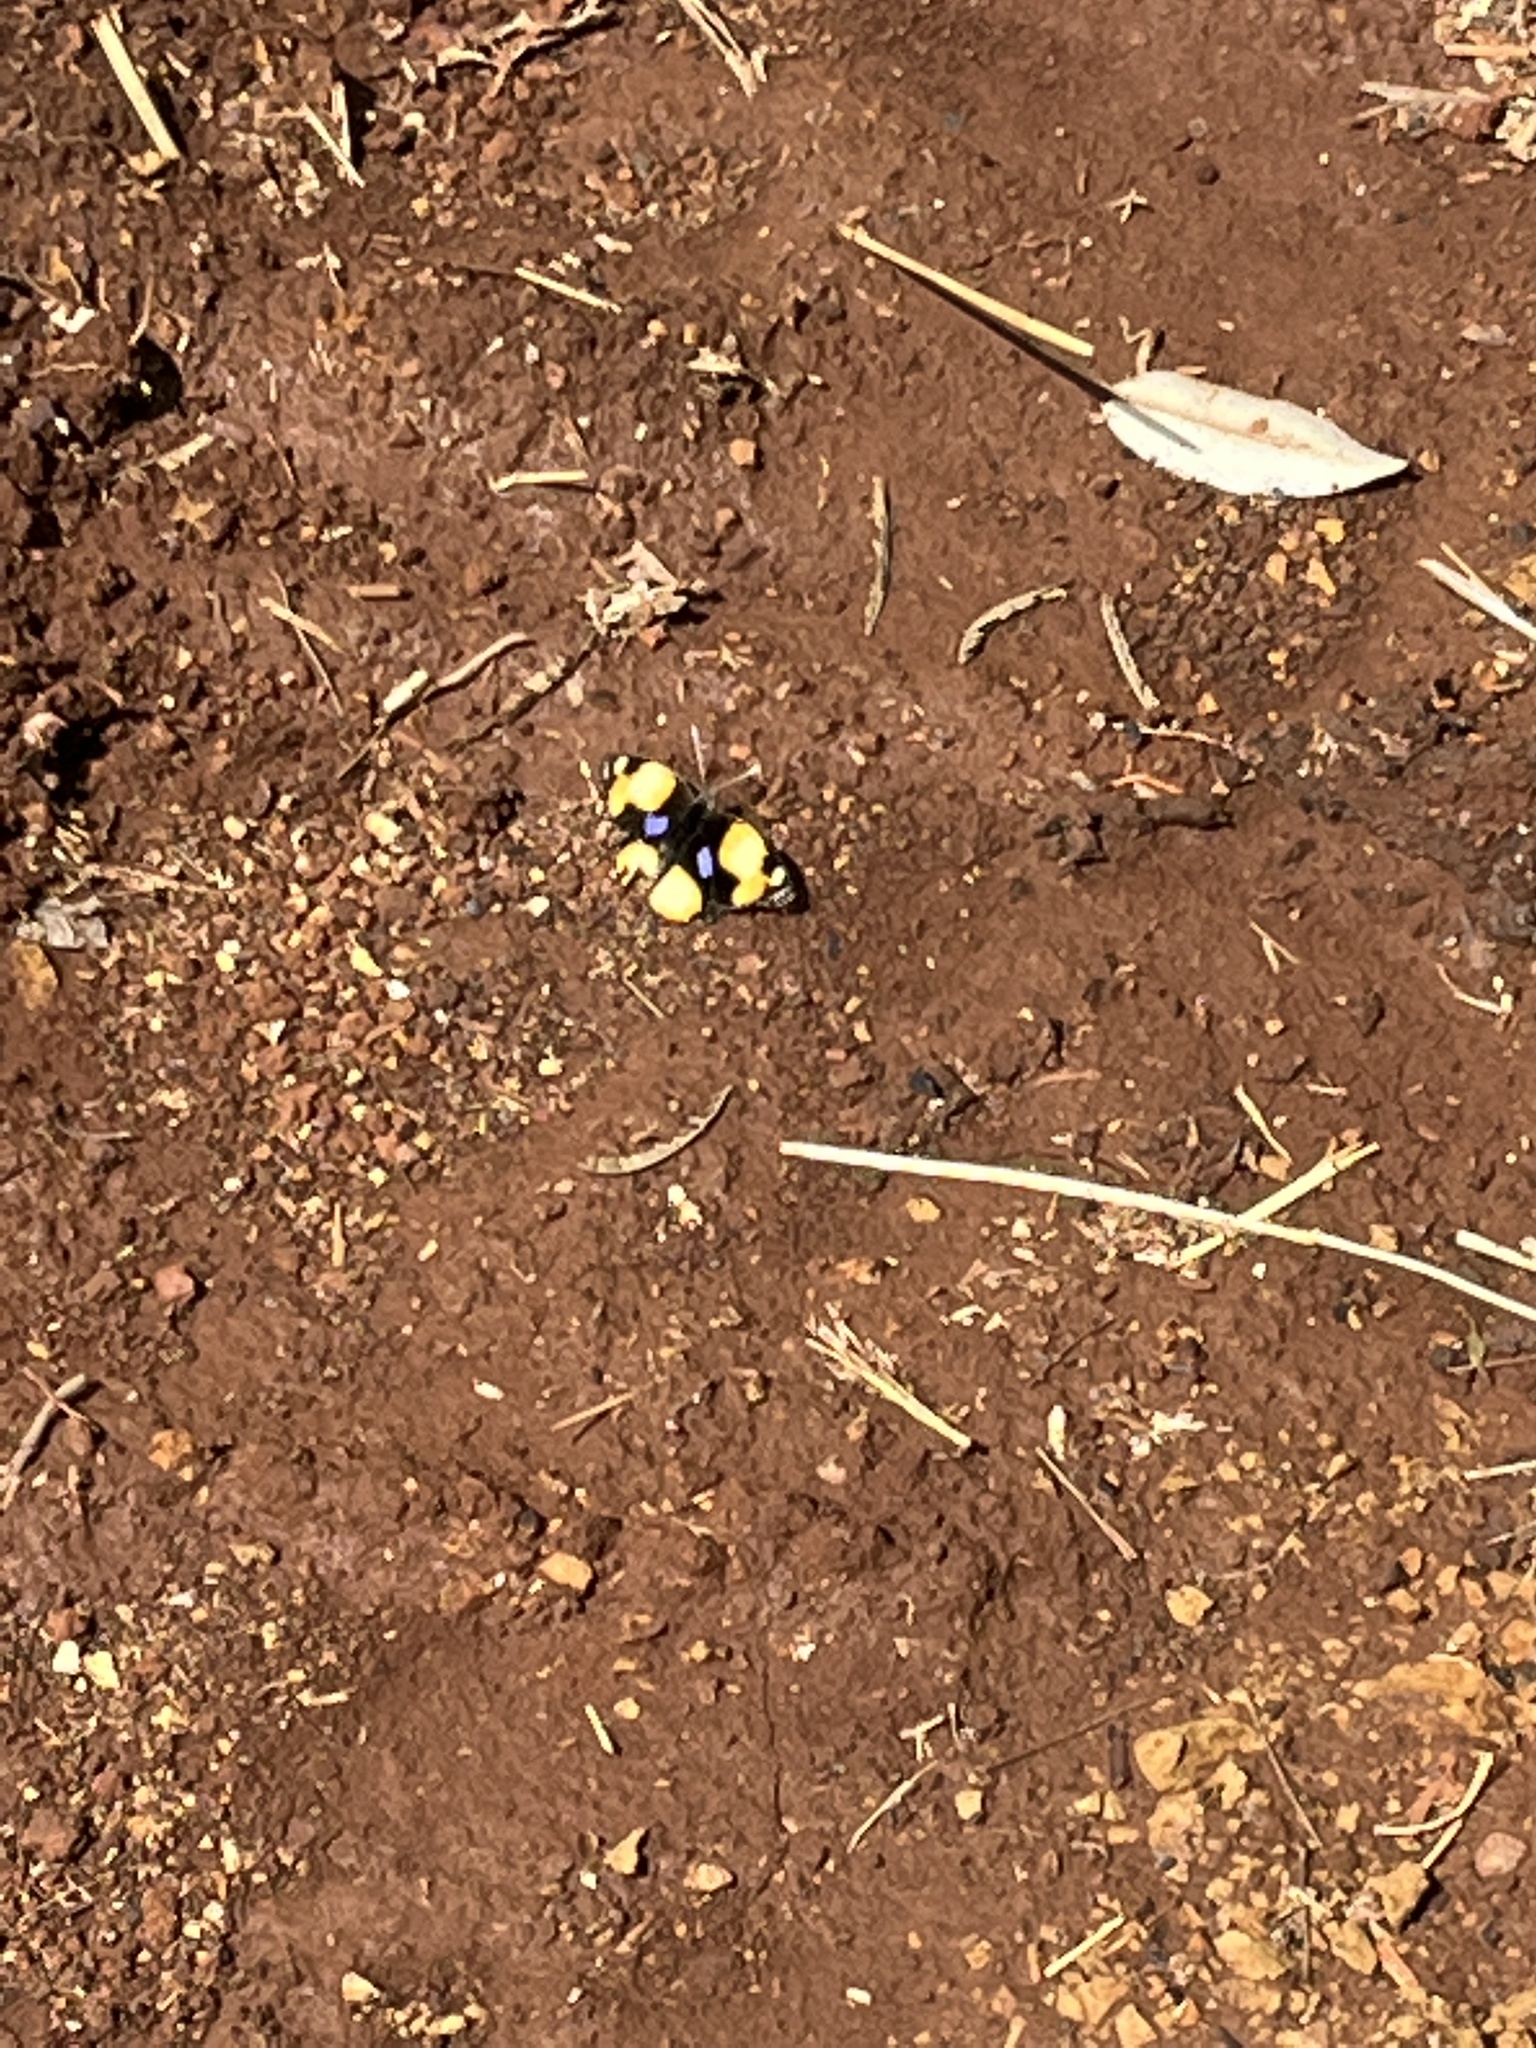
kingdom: Animalia
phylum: Arthropoda
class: Insecta
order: Lepidoptera
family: Nymphalidae
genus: Junonia
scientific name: Junonia hierta
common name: Yellow pansy
